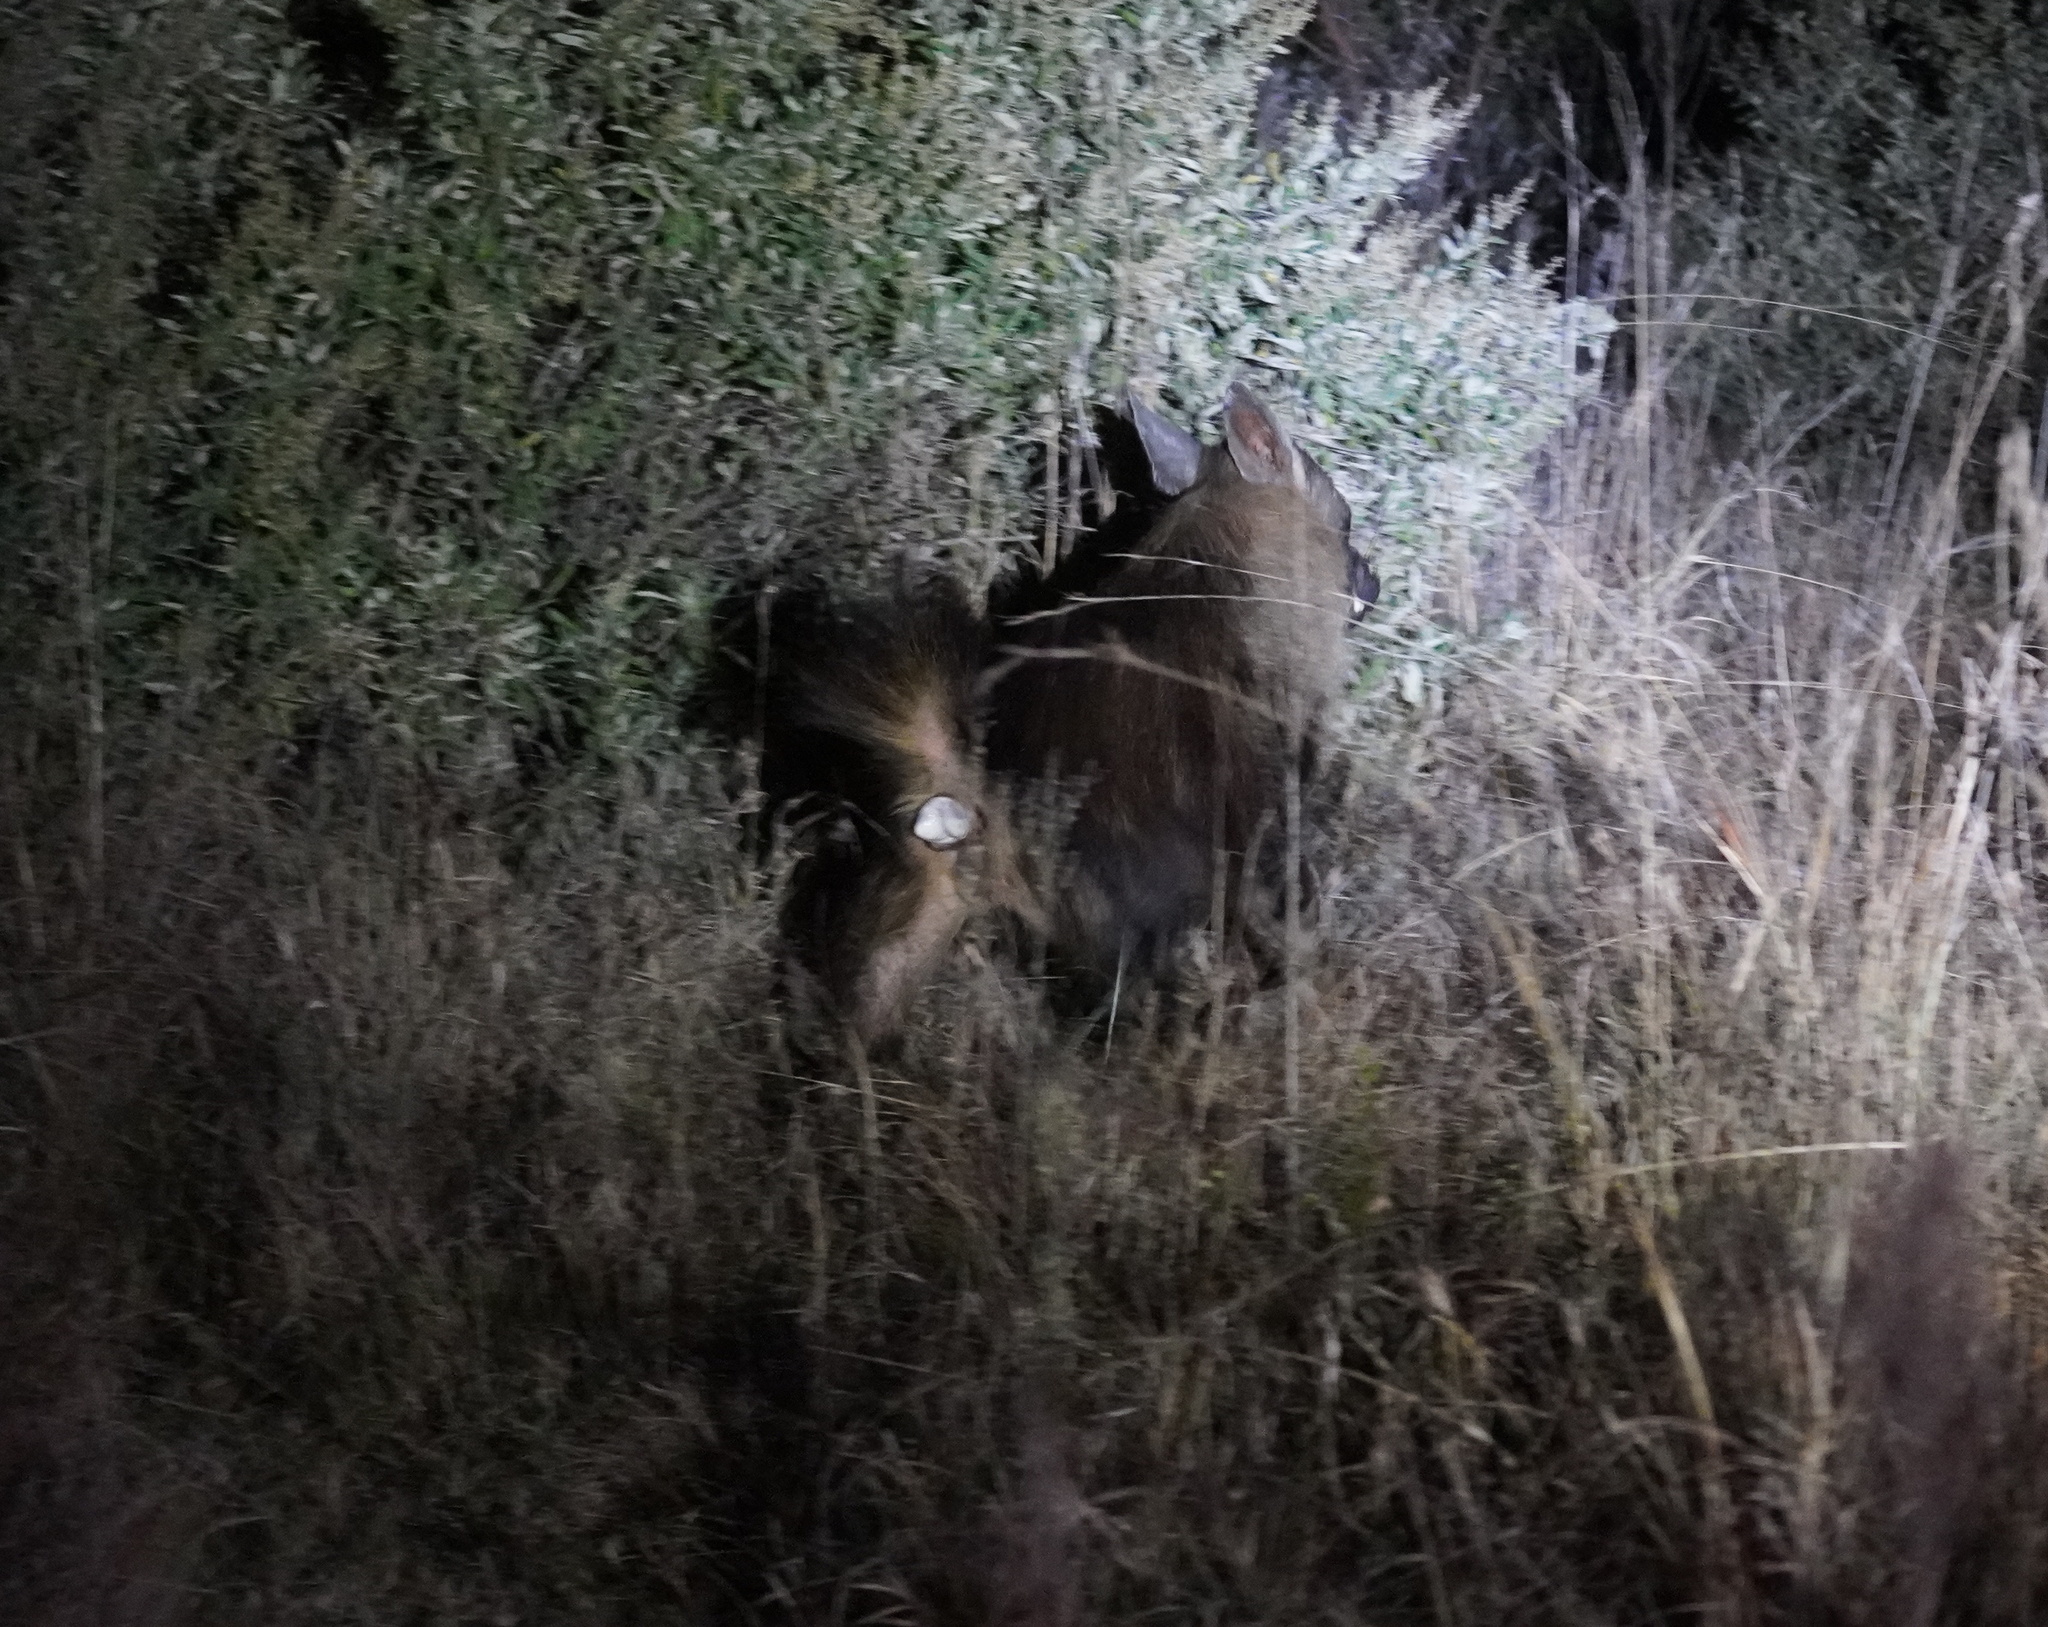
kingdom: Animalia
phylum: Chordata
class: Mammalia
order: Carnivora
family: Hyaenidae
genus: Hyaena
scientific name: Hyaena brunnea
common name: Brown hyena
